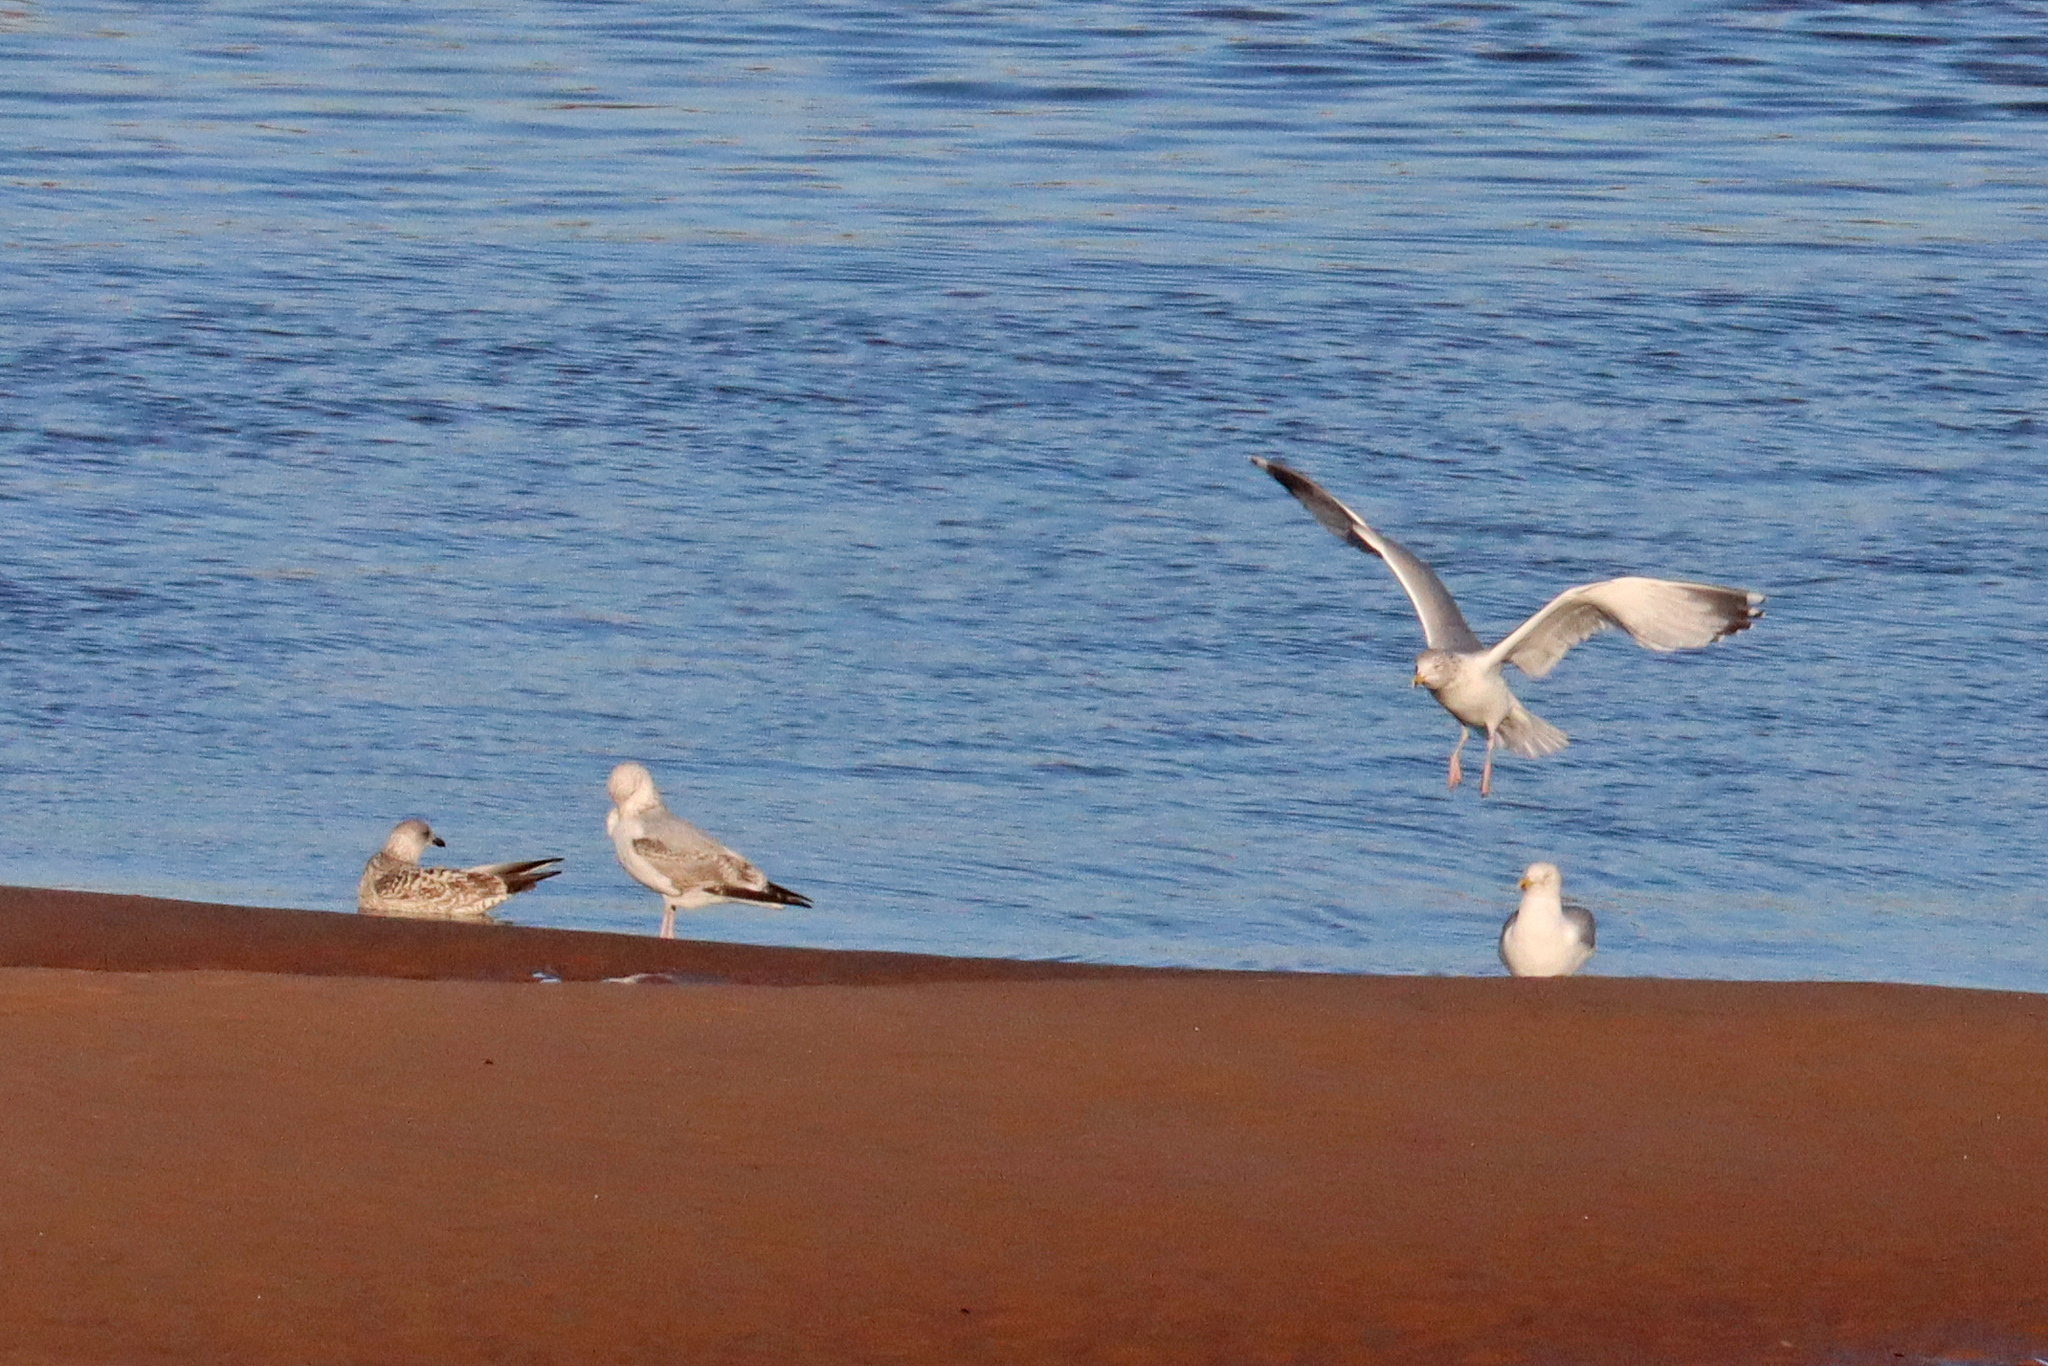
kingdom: Animalia
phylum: Chordata
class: Aves
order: Charadriiformes
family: Laridae
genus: Larus
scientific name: Larus argentatus
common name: Herring gull
